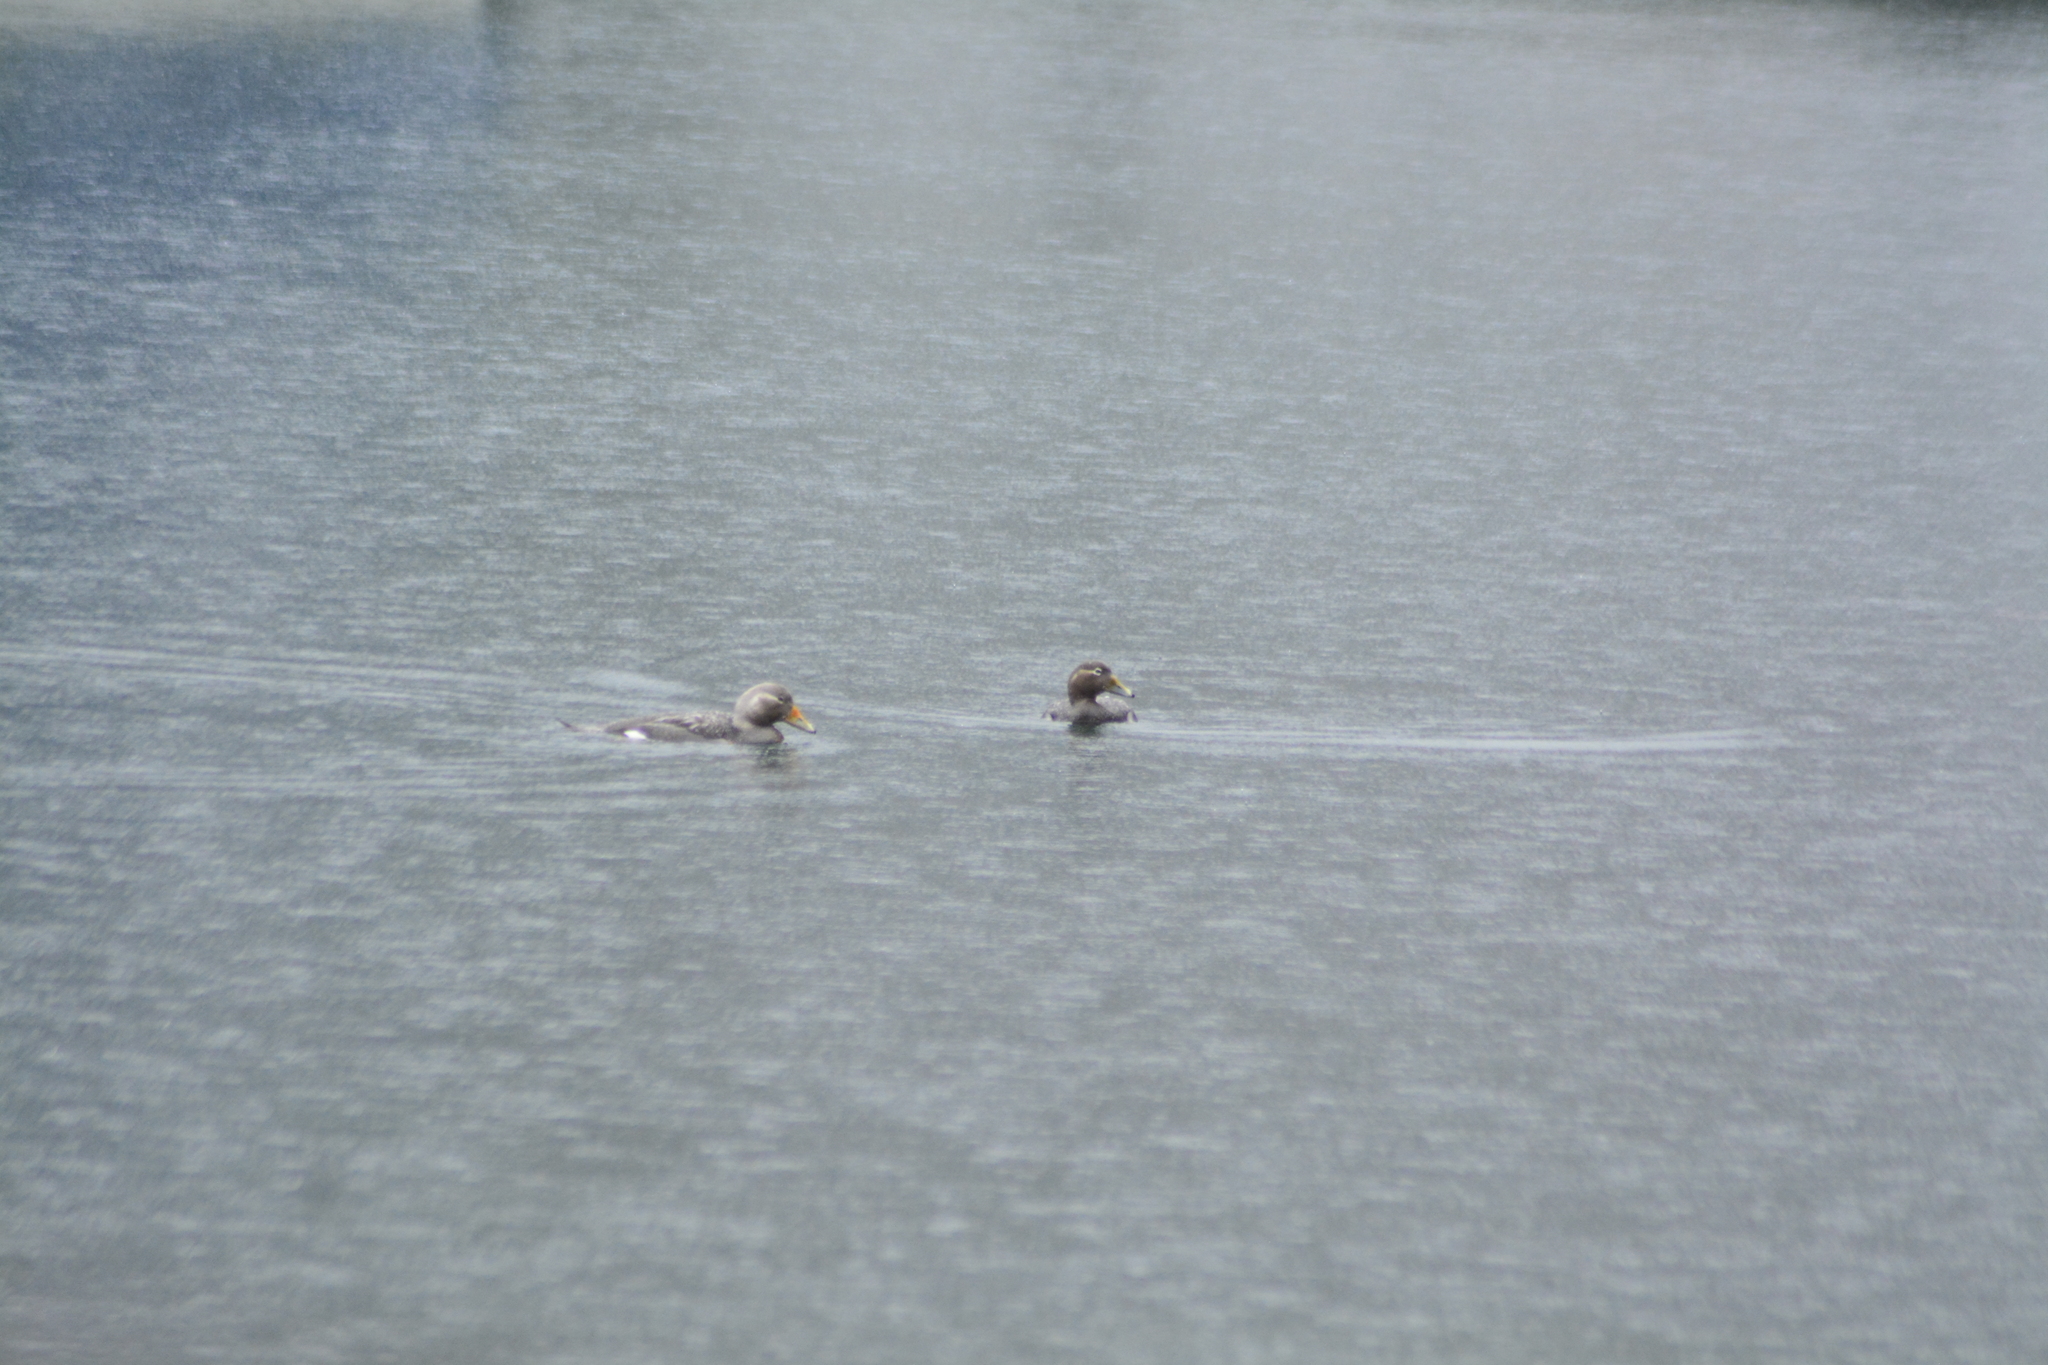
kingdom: Animalia
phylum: Chordata
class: Aves
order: Anseriformes
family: Anatidae
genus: Tachyeres
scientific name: Tachyeres patachonicus
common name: Flying steamer duck
